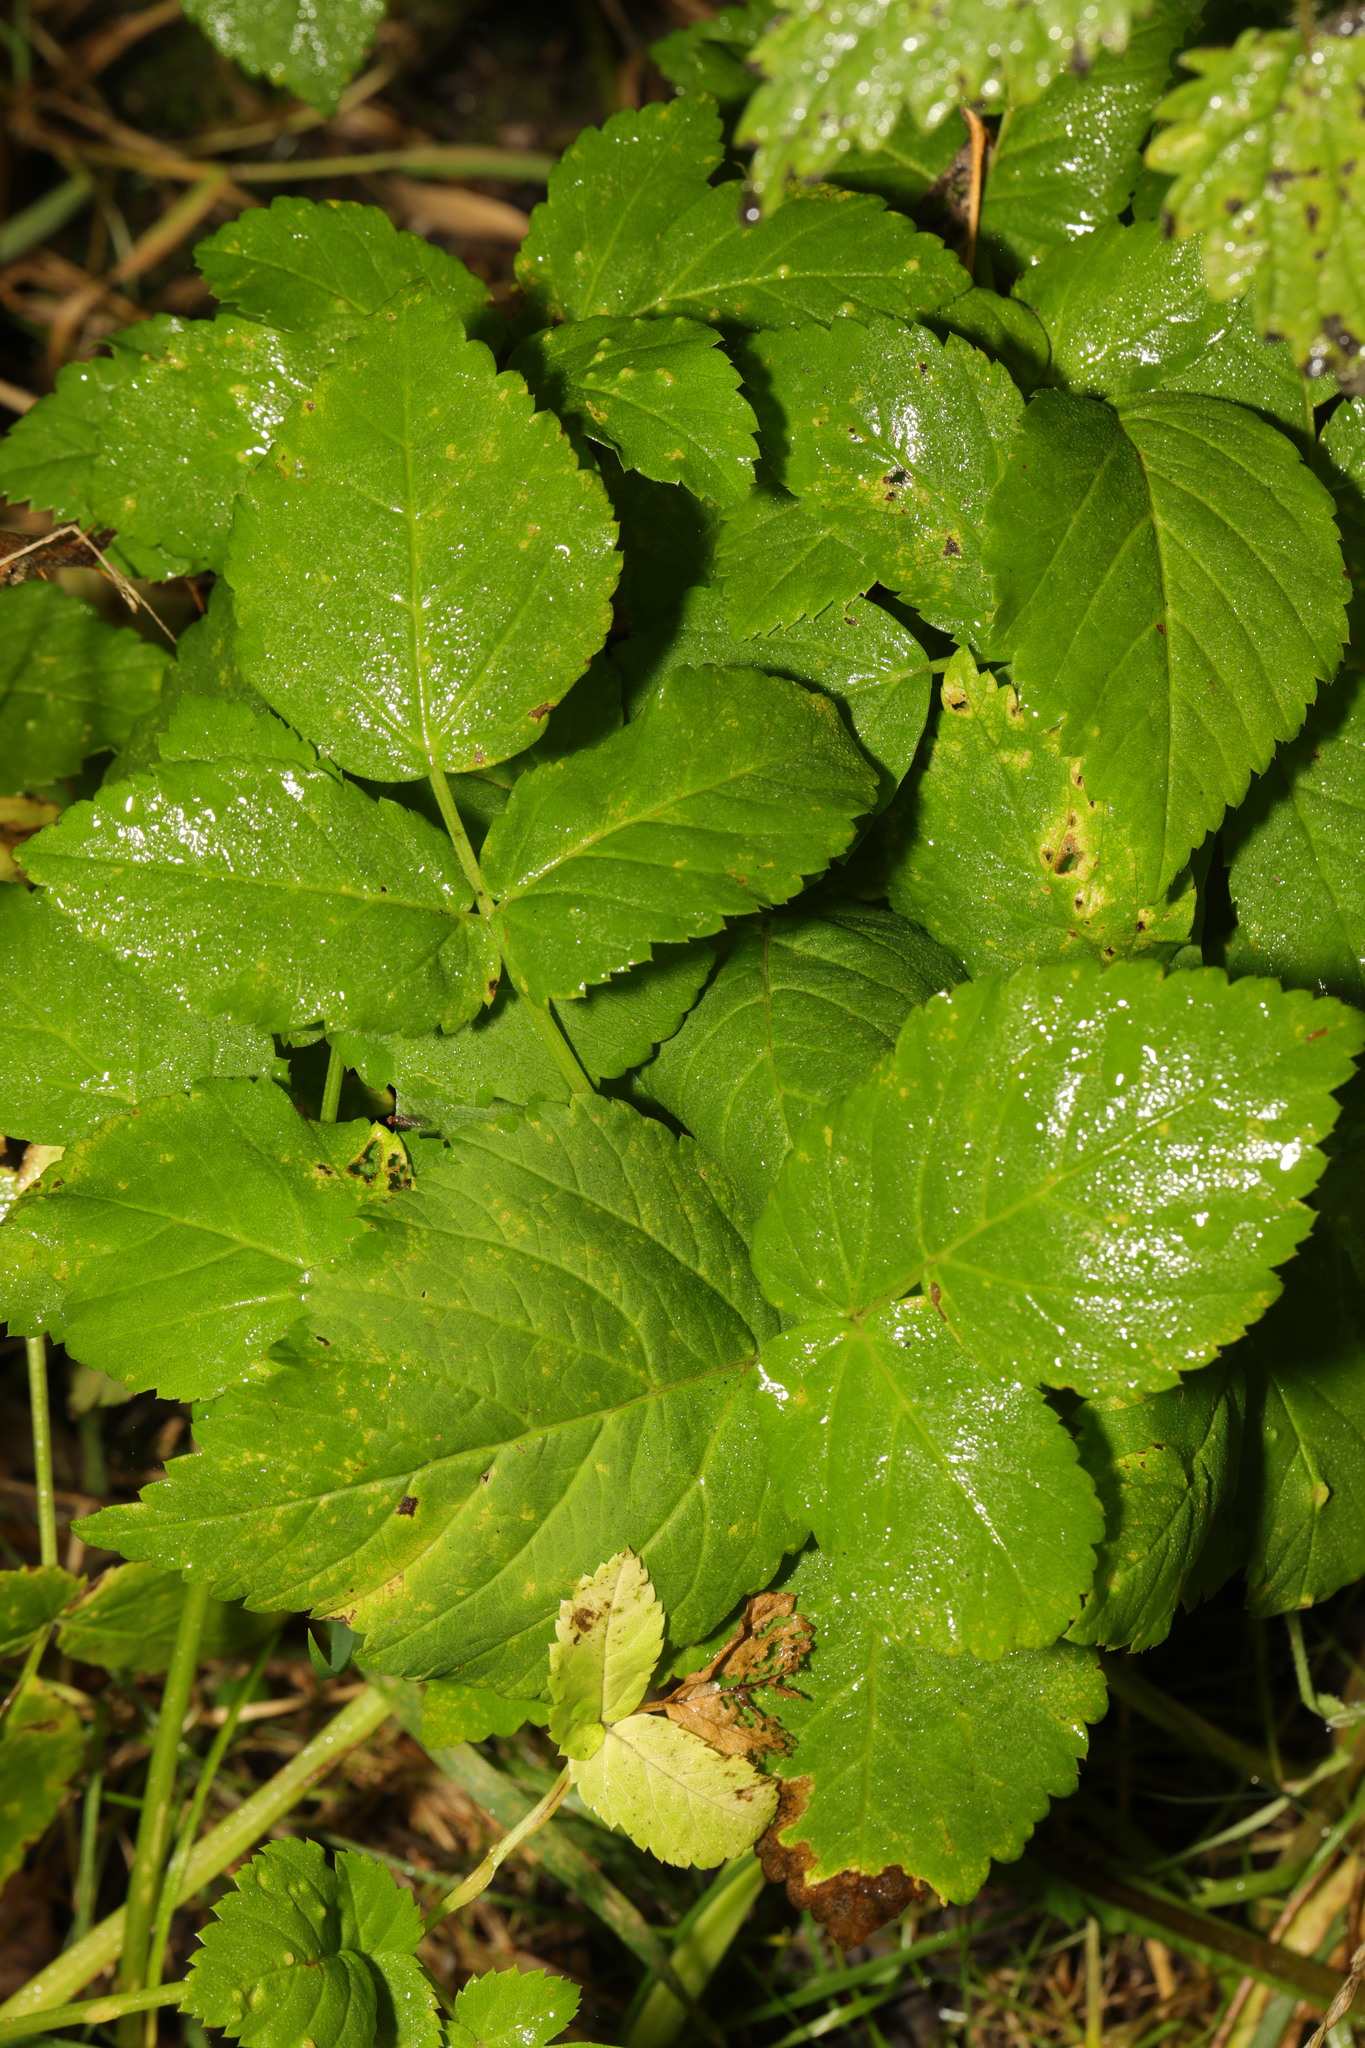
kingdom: Plantae
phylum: Tracheophyta
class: Magnoliopsida
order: Apiales
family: Apiaceae
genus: Aegopodium
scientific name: Aegopodium podagraria
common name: Ground-elder
